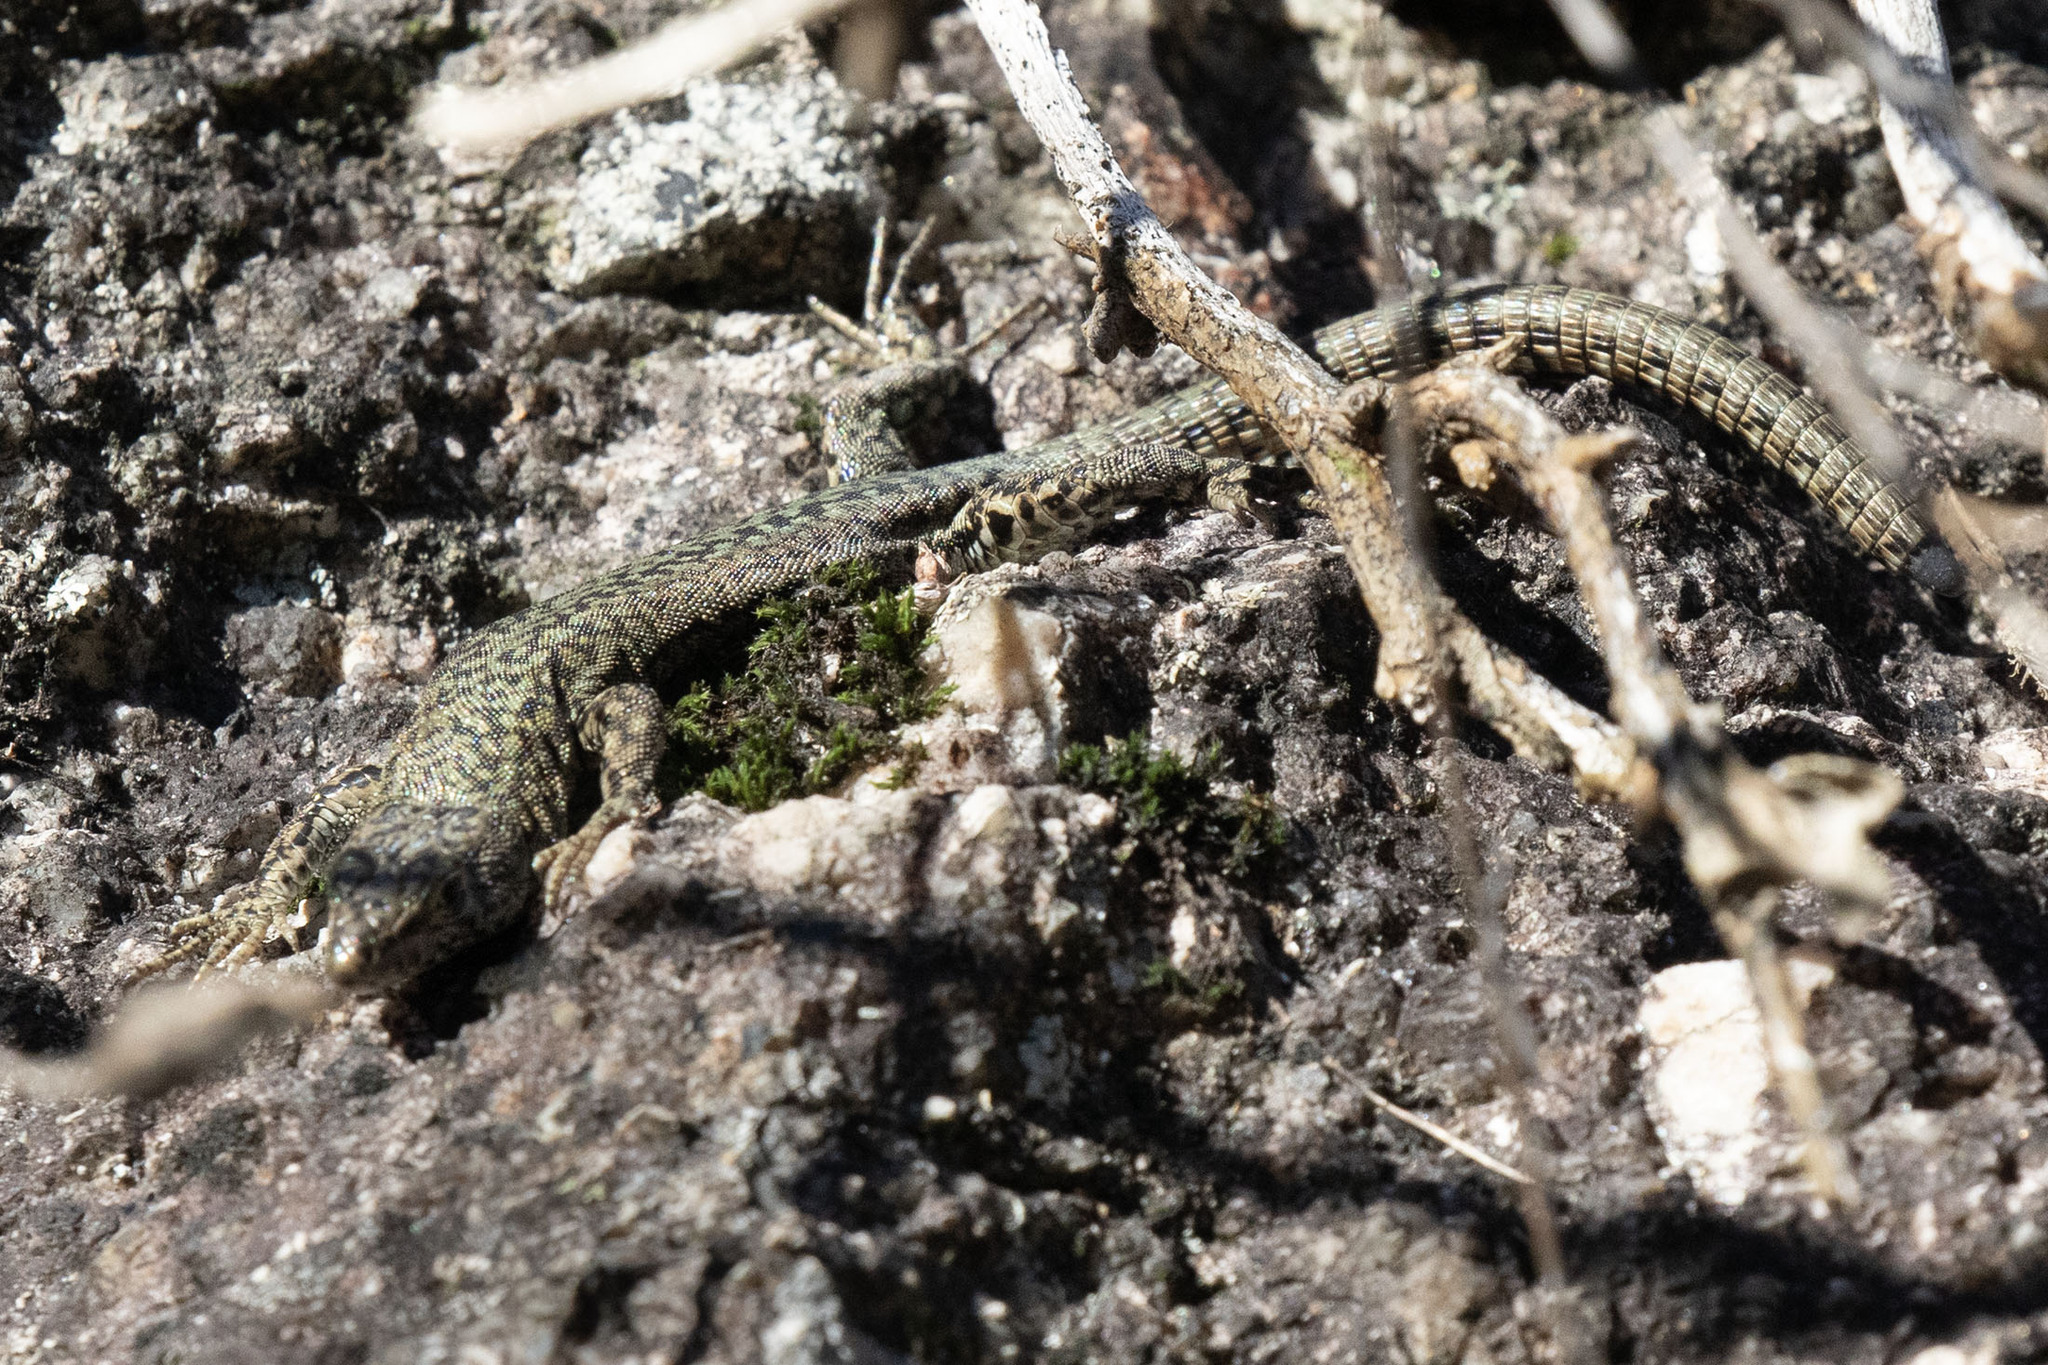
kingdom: Animalia
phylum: Chordata
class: Squamata
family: Lacertidae
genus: Podarcis
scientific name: Podarcis
